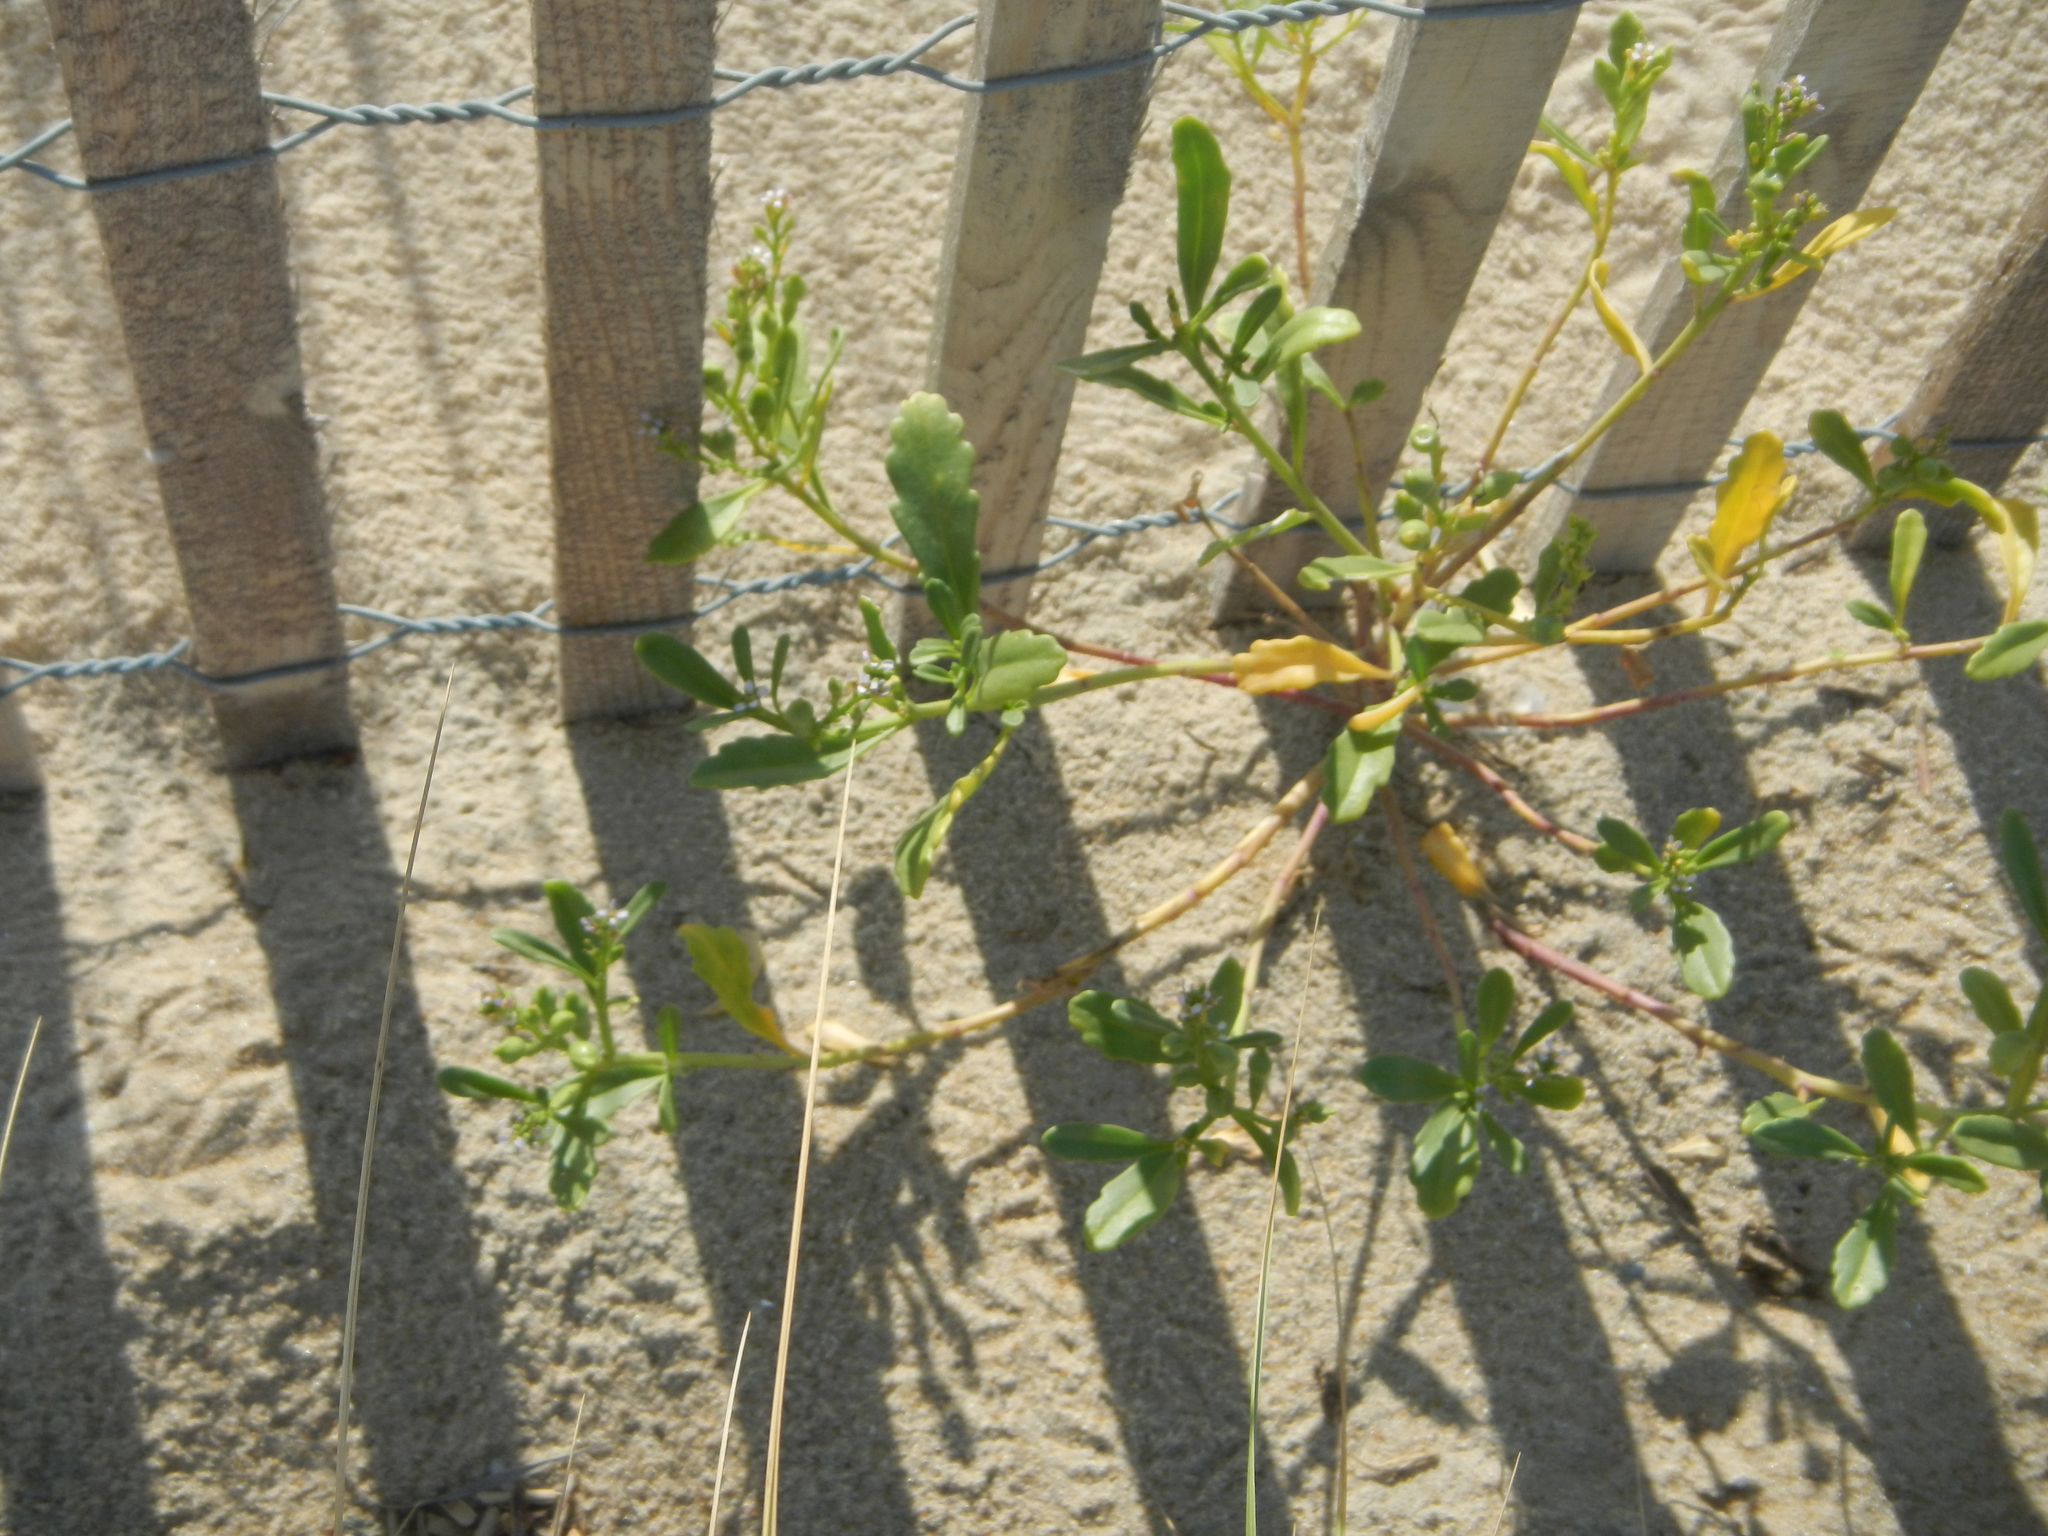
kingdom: Plantae
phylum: Tracheophyta
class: Magnoliopsida
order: Brassicales
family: Brassicaceae
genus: Cakile
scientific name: Cakile edentula
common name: American sea rocket
